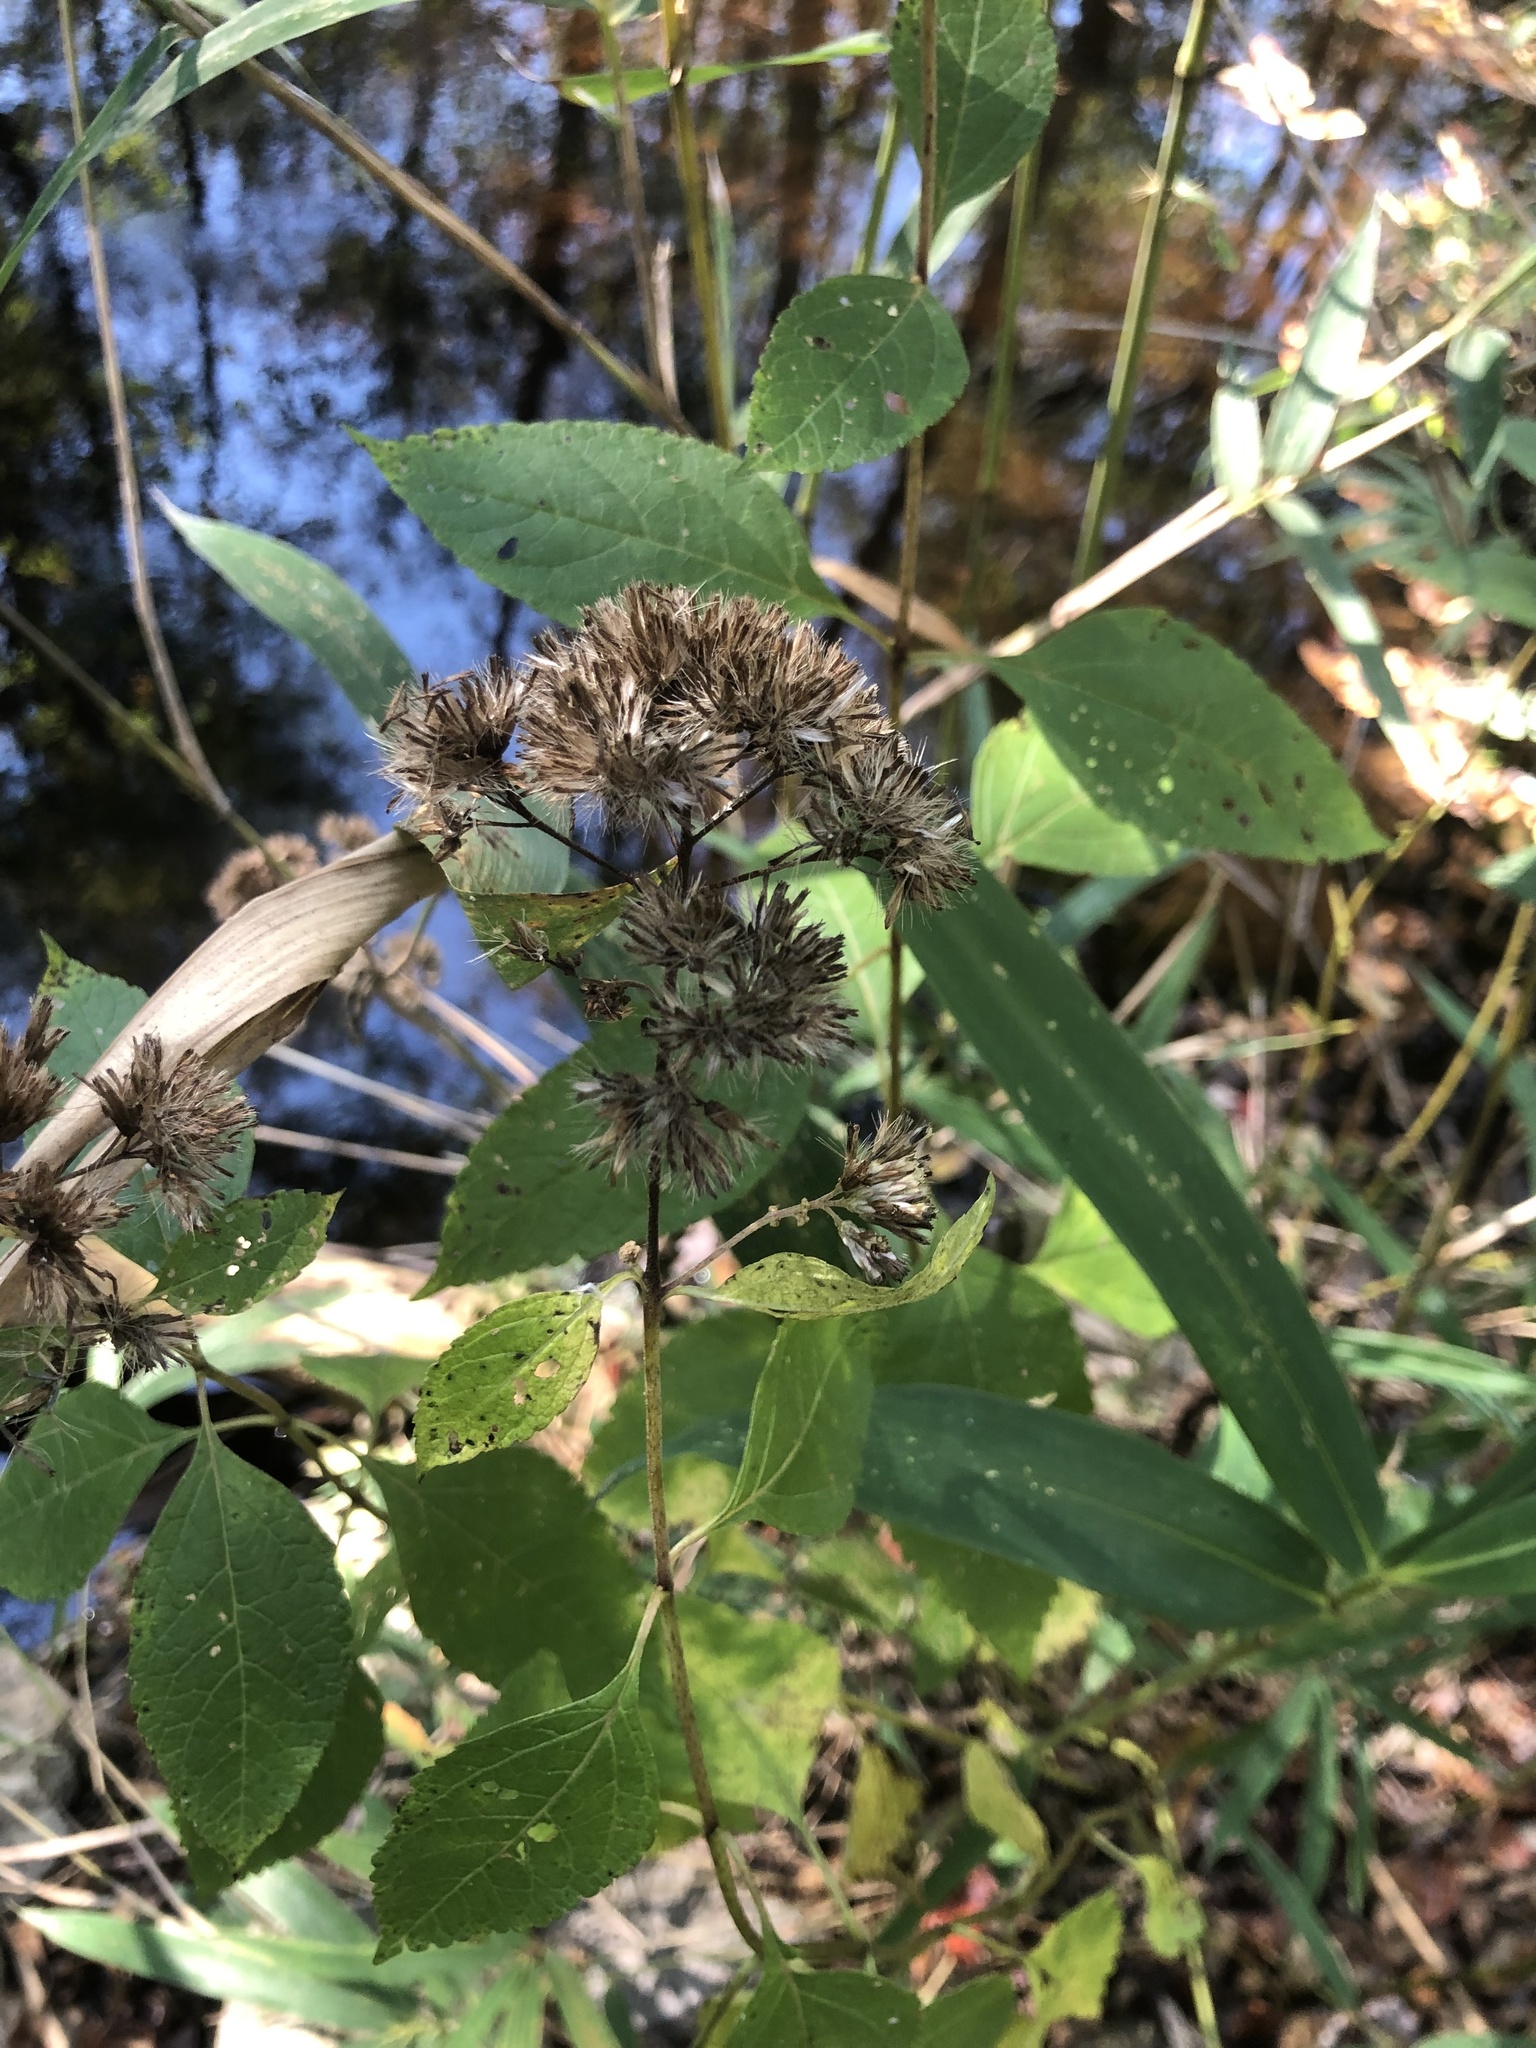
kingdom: Plantae
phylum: Tracheophyta
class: Magnoliopsida
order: Asterales
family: Asteraceae
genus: Ageratina
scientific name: Ageratina altissima
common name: White snakeroot
